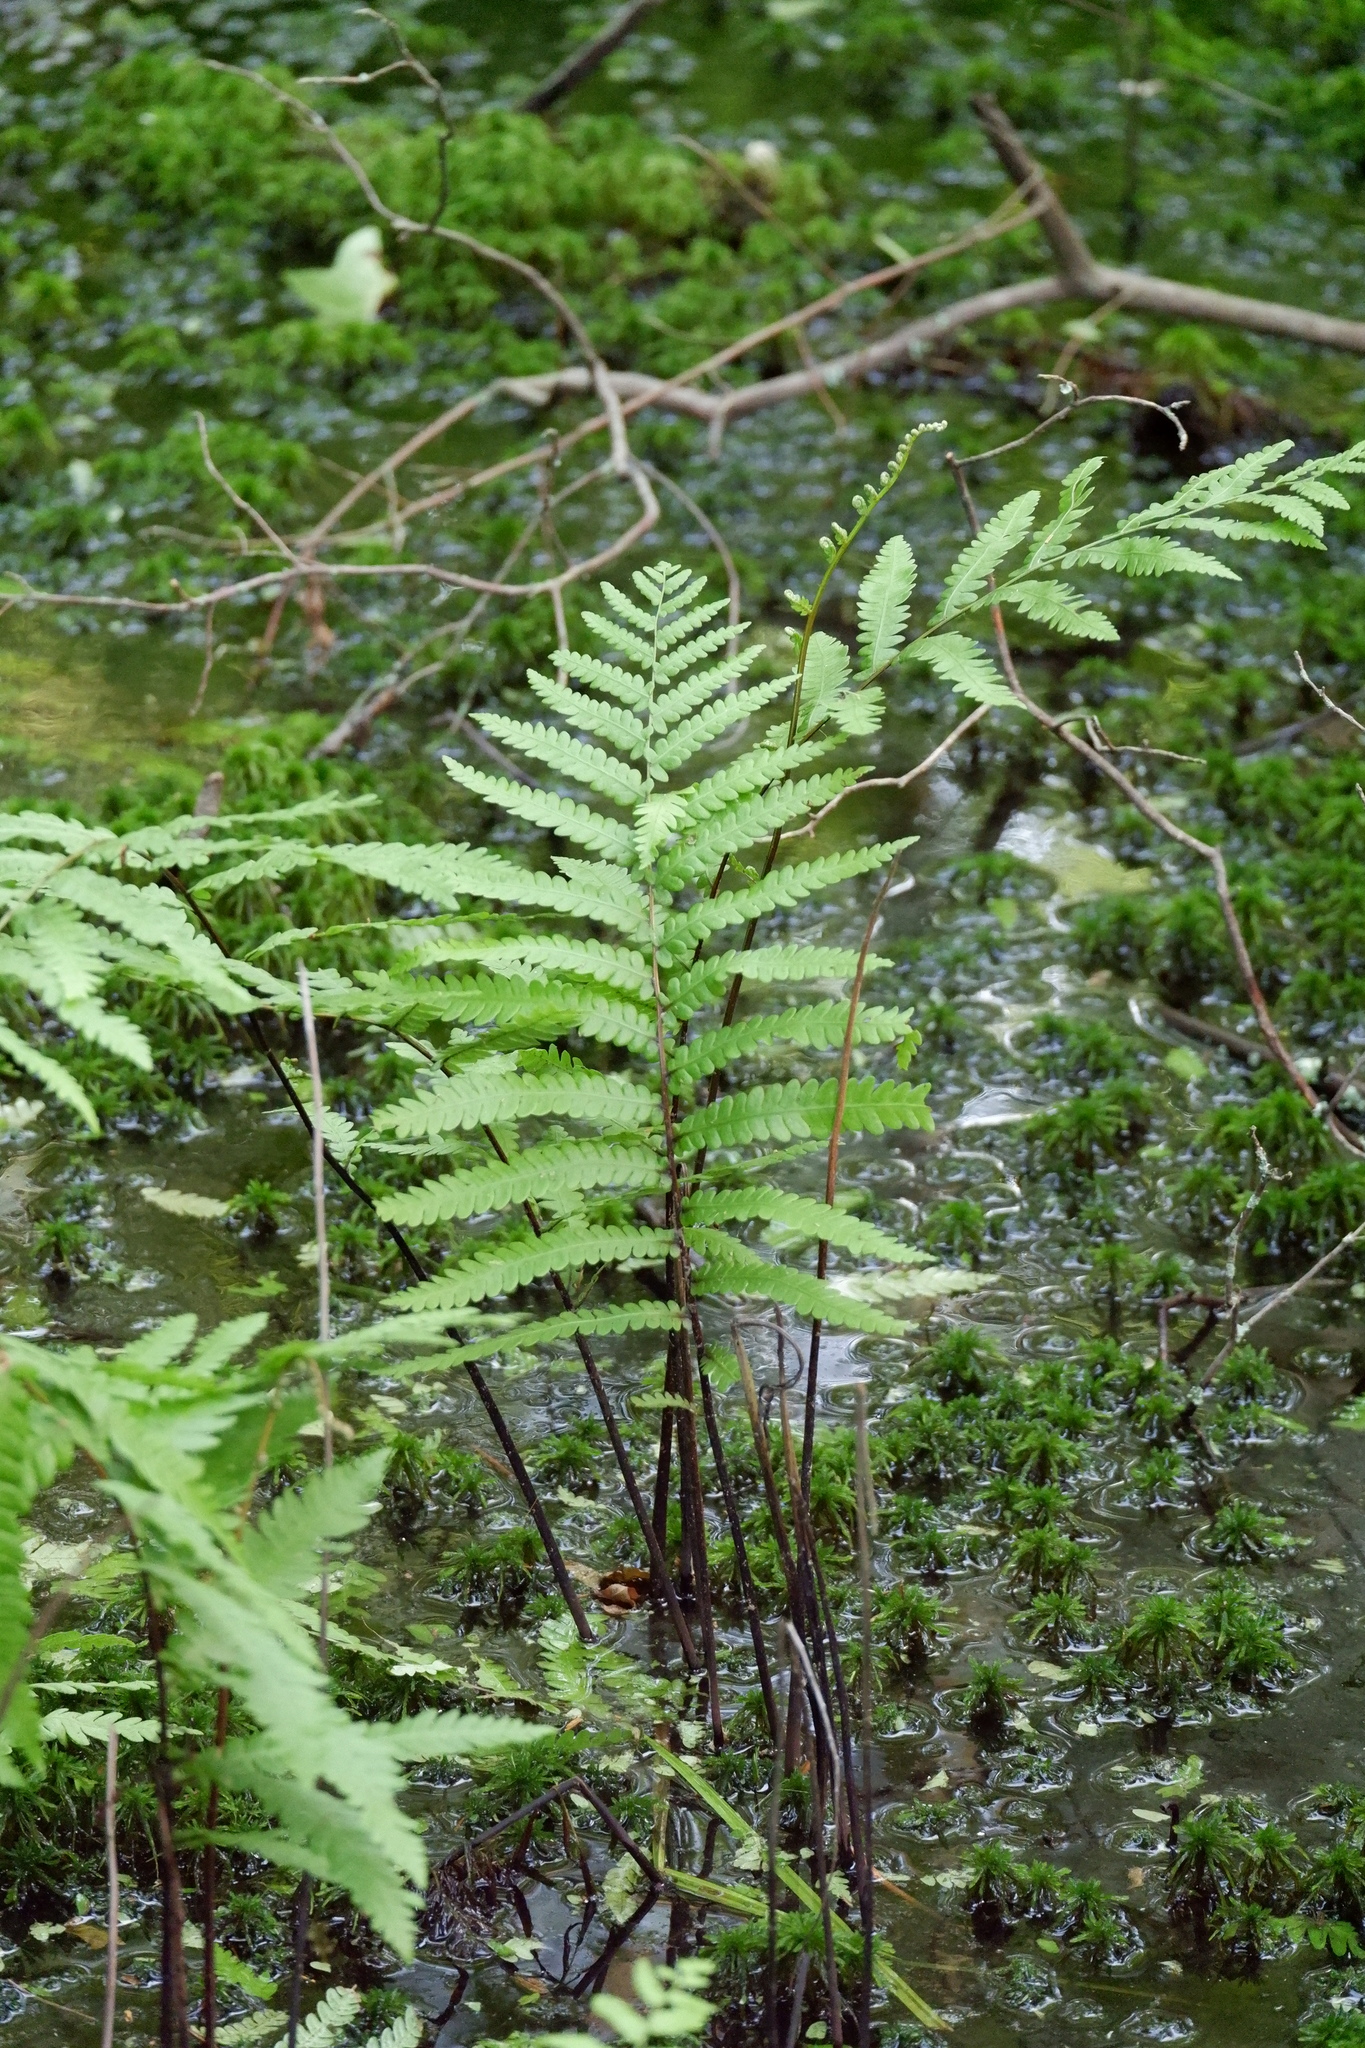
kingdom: Plantae
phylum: Tracheophyta
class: Polypodiopsida
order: Polypodiales
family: Blechnaceae
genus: Anchistea
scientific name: Anchistea virginica
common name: Virginia chain fern
